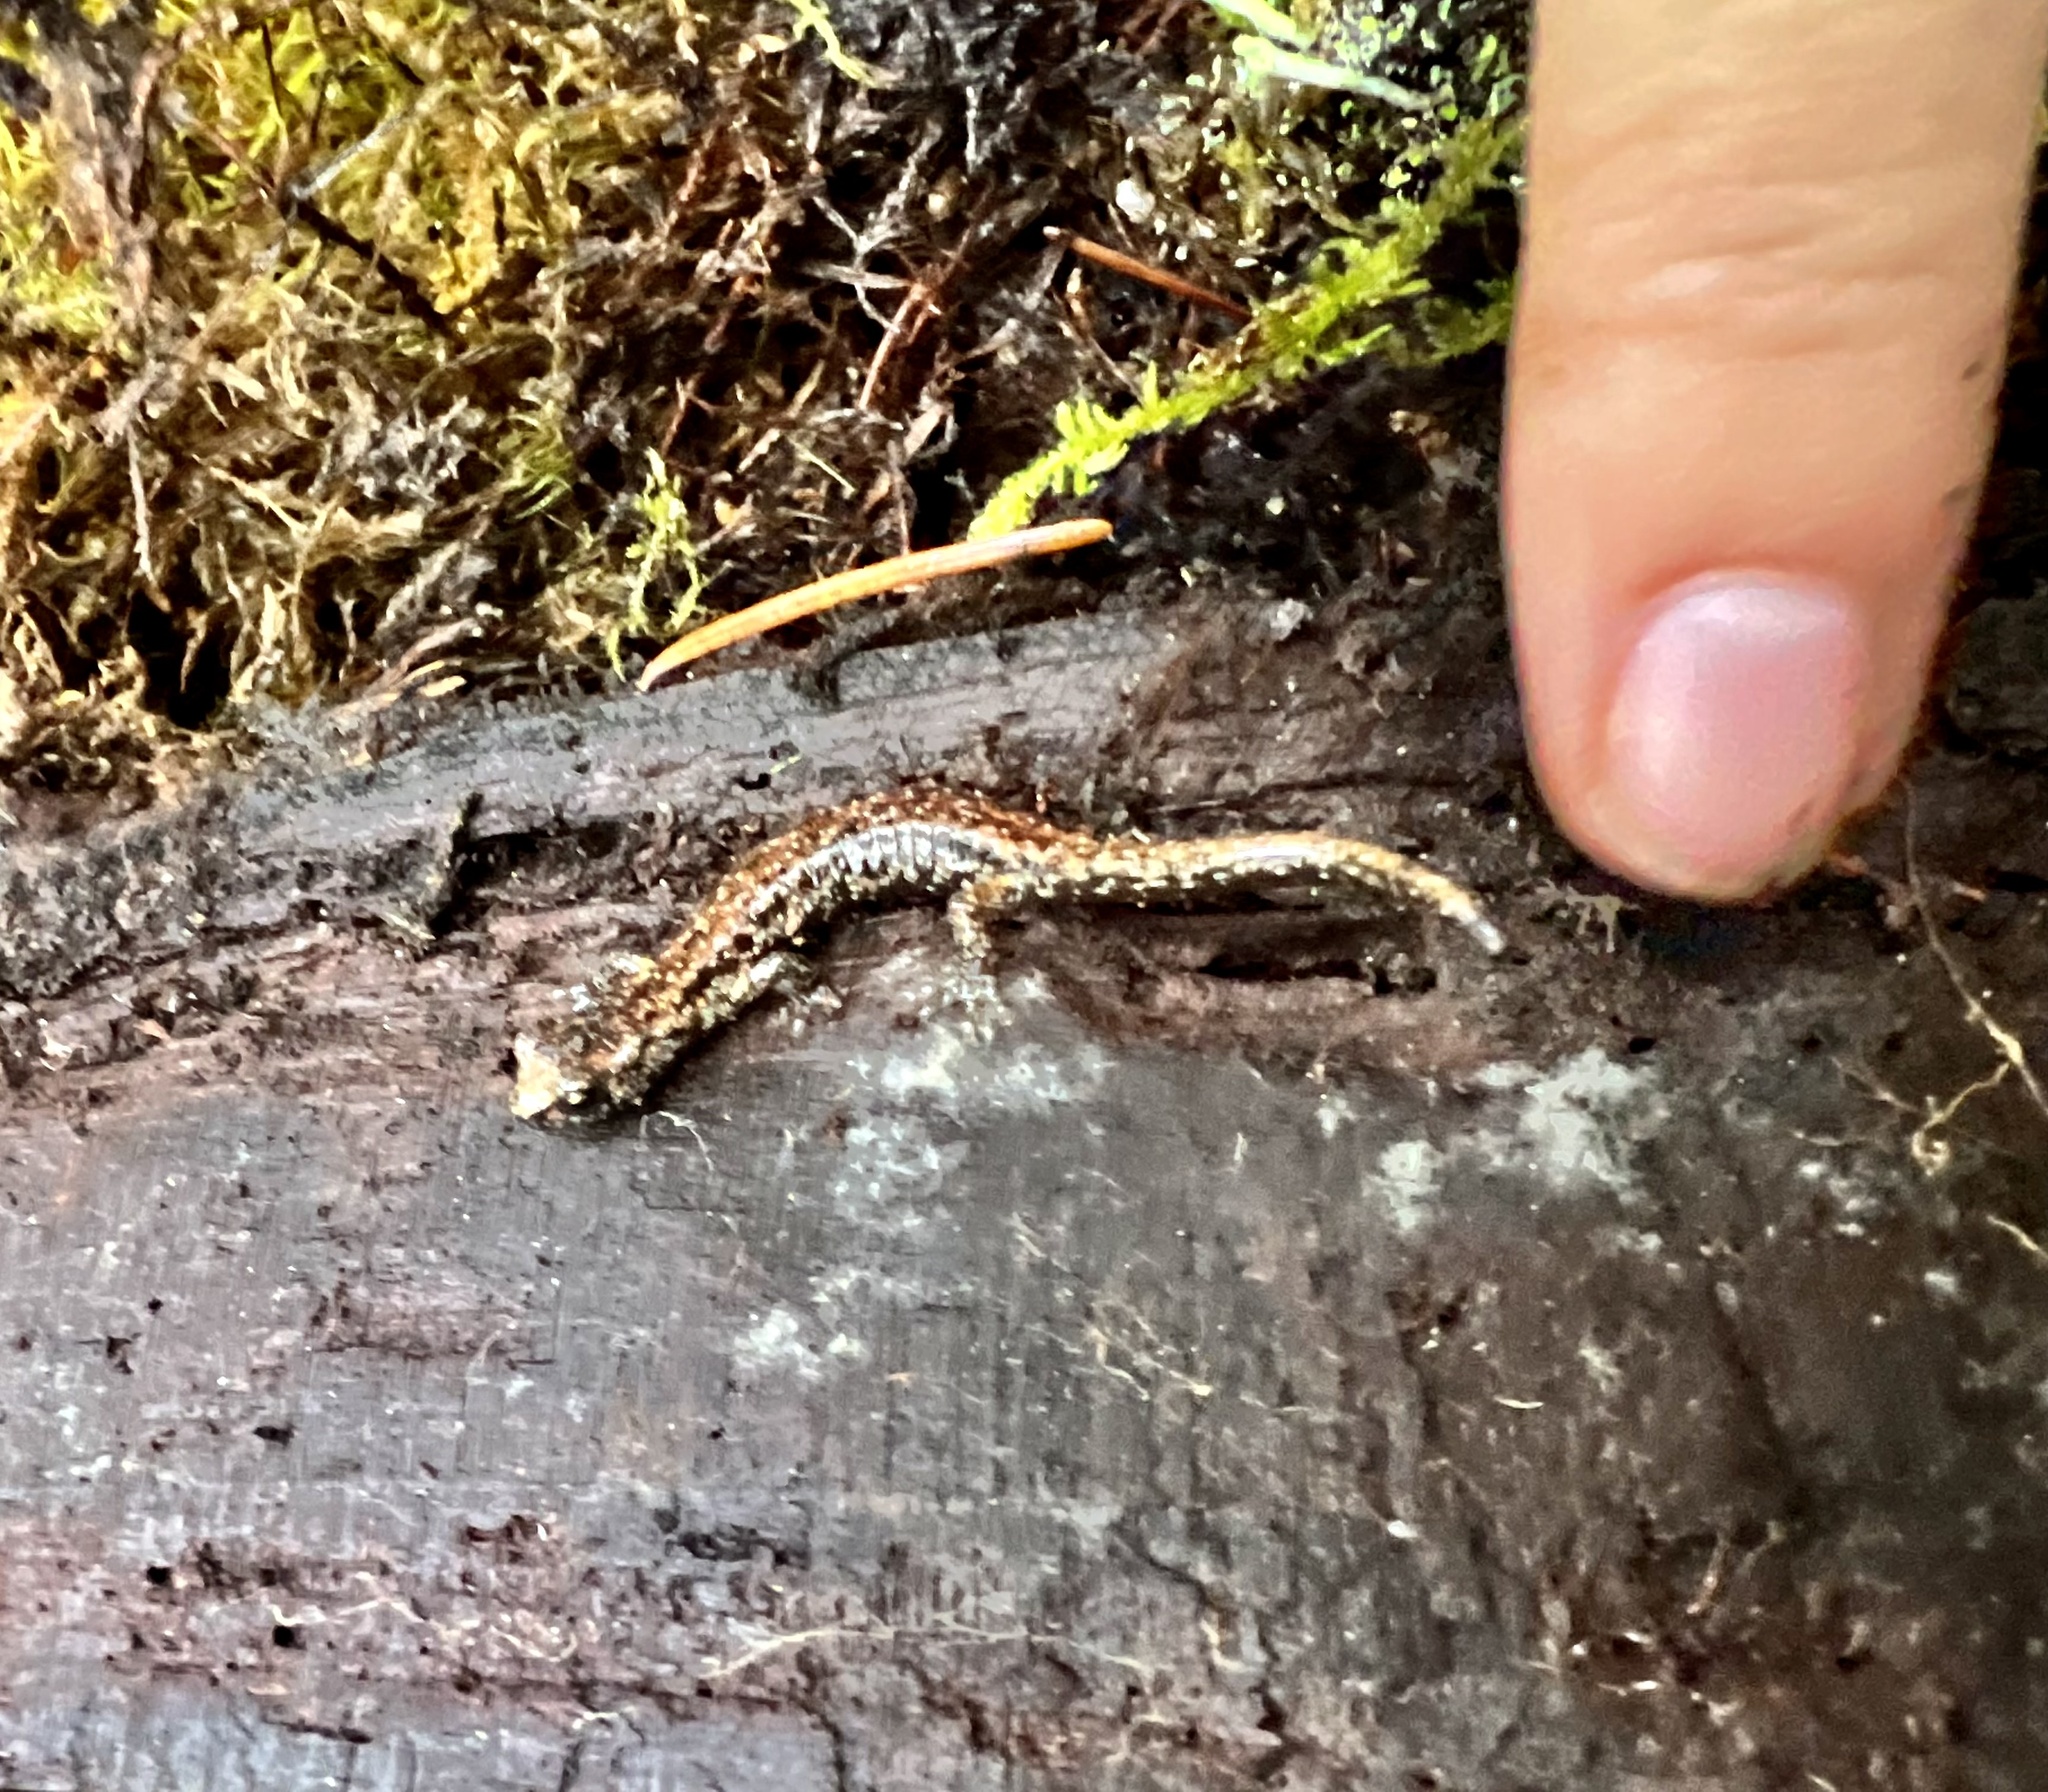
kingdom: Animalia
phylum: Chordata
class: Amphibia
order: Caudata
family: Plethodontidae
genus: Aneides
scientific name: Aneides vagrans
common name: Wandering salamander
